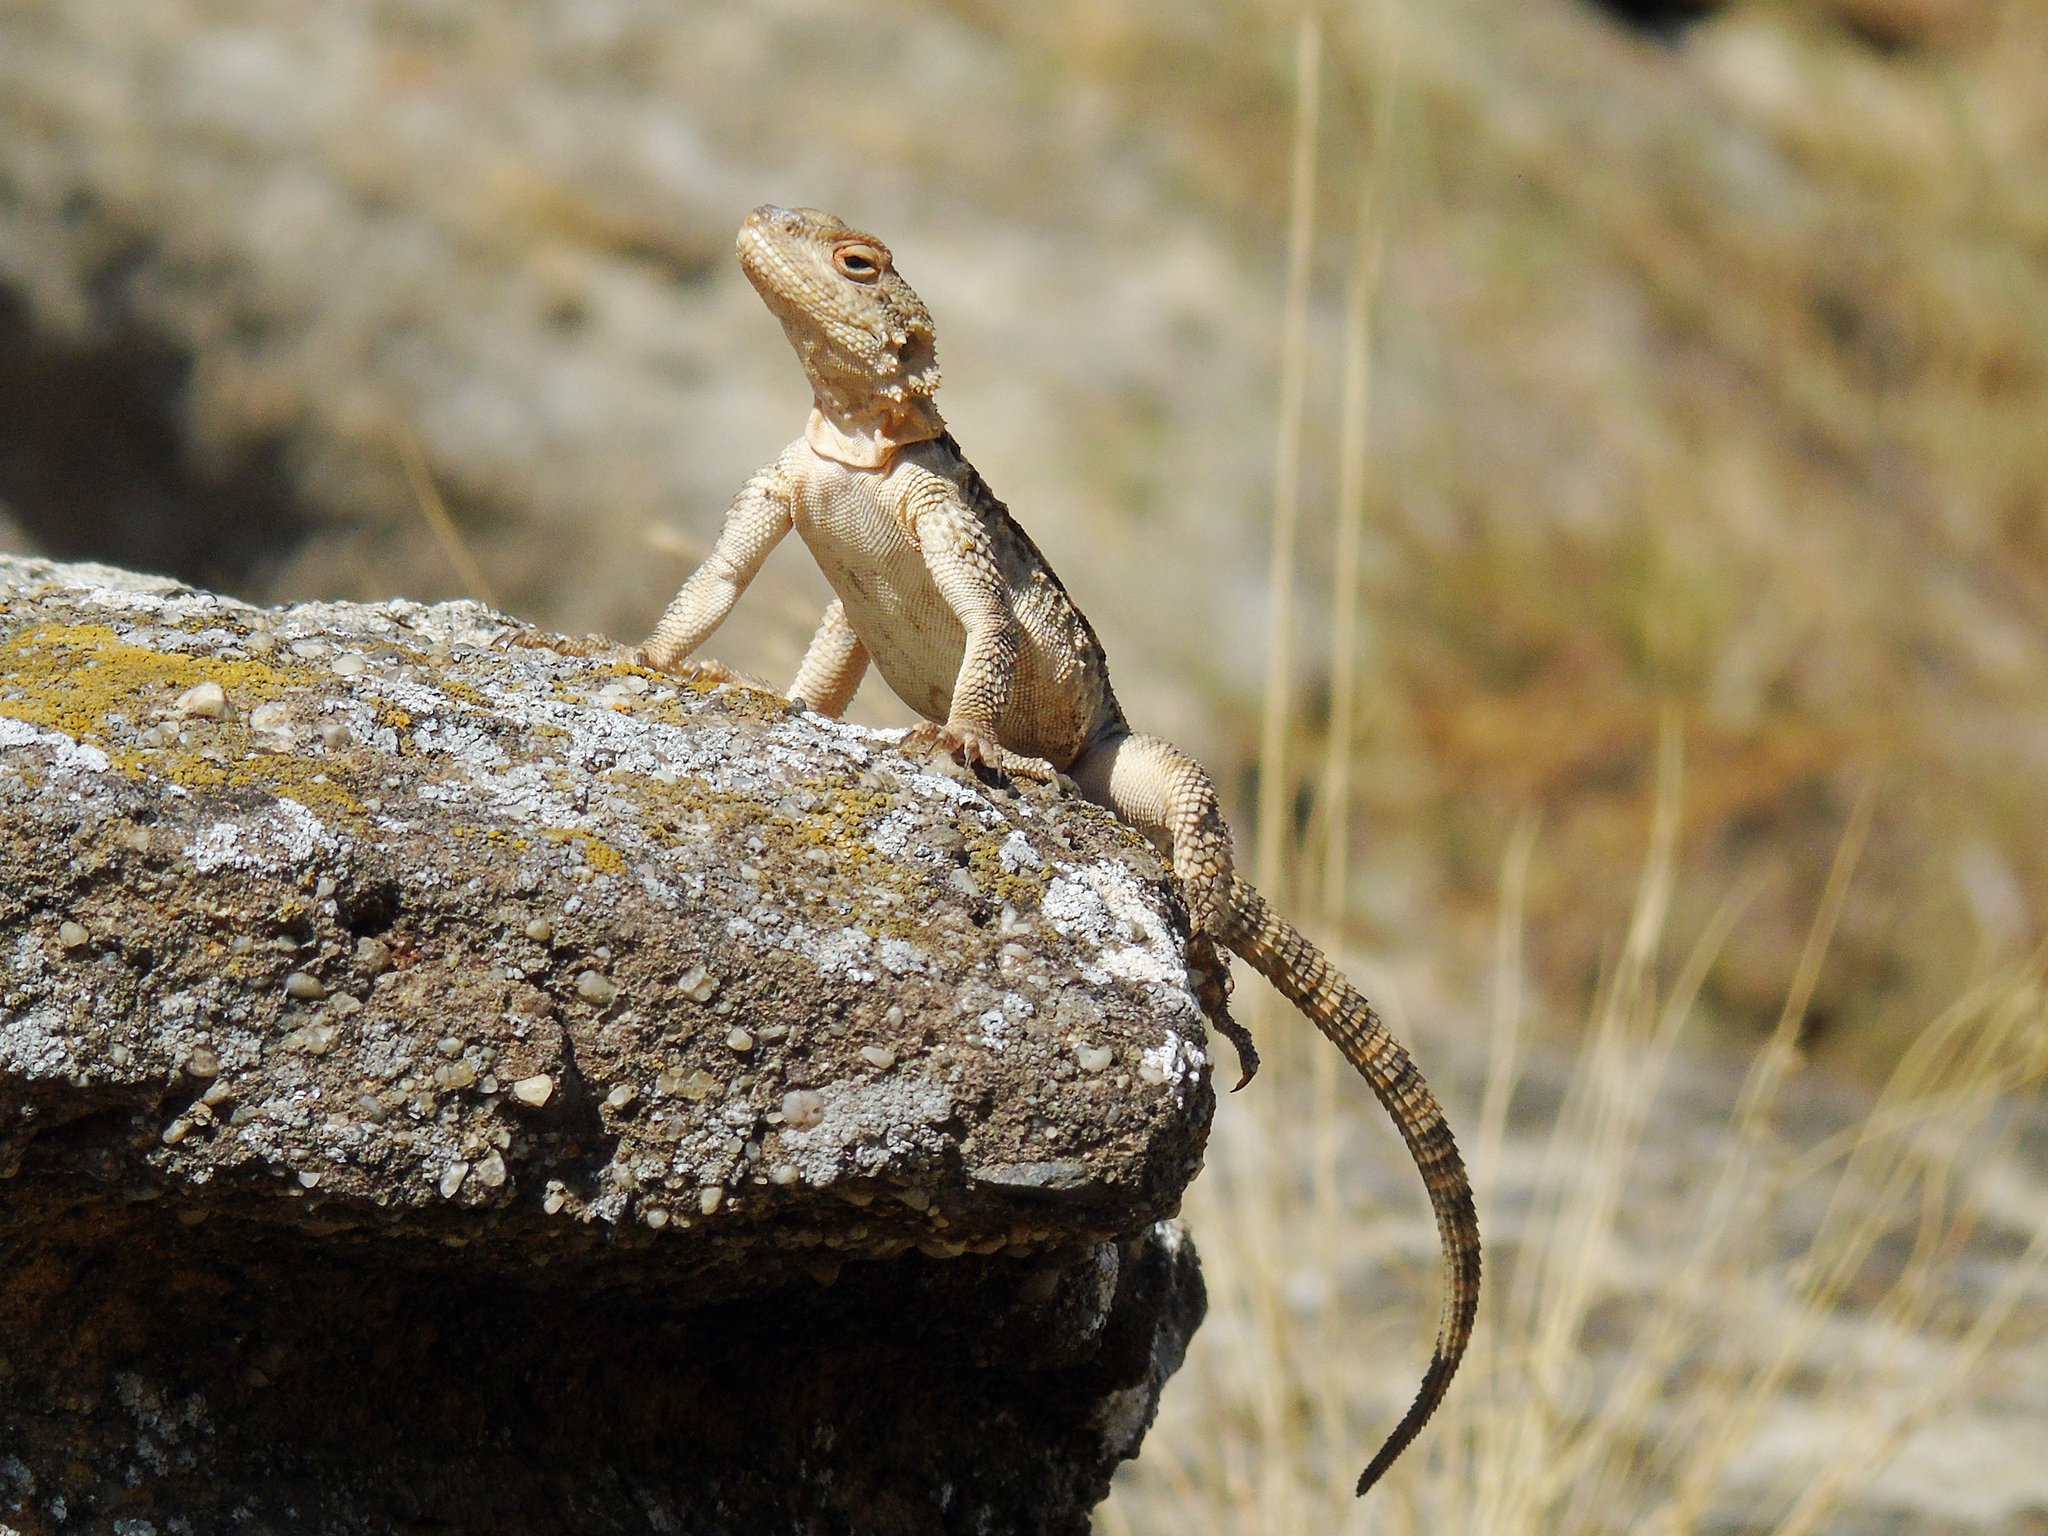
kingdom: Animalia
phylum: Chordata
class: Squamata
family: Agamidae
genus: Paralaudakia
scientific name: Paralaudakia caucasia
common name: Caucasian agama
